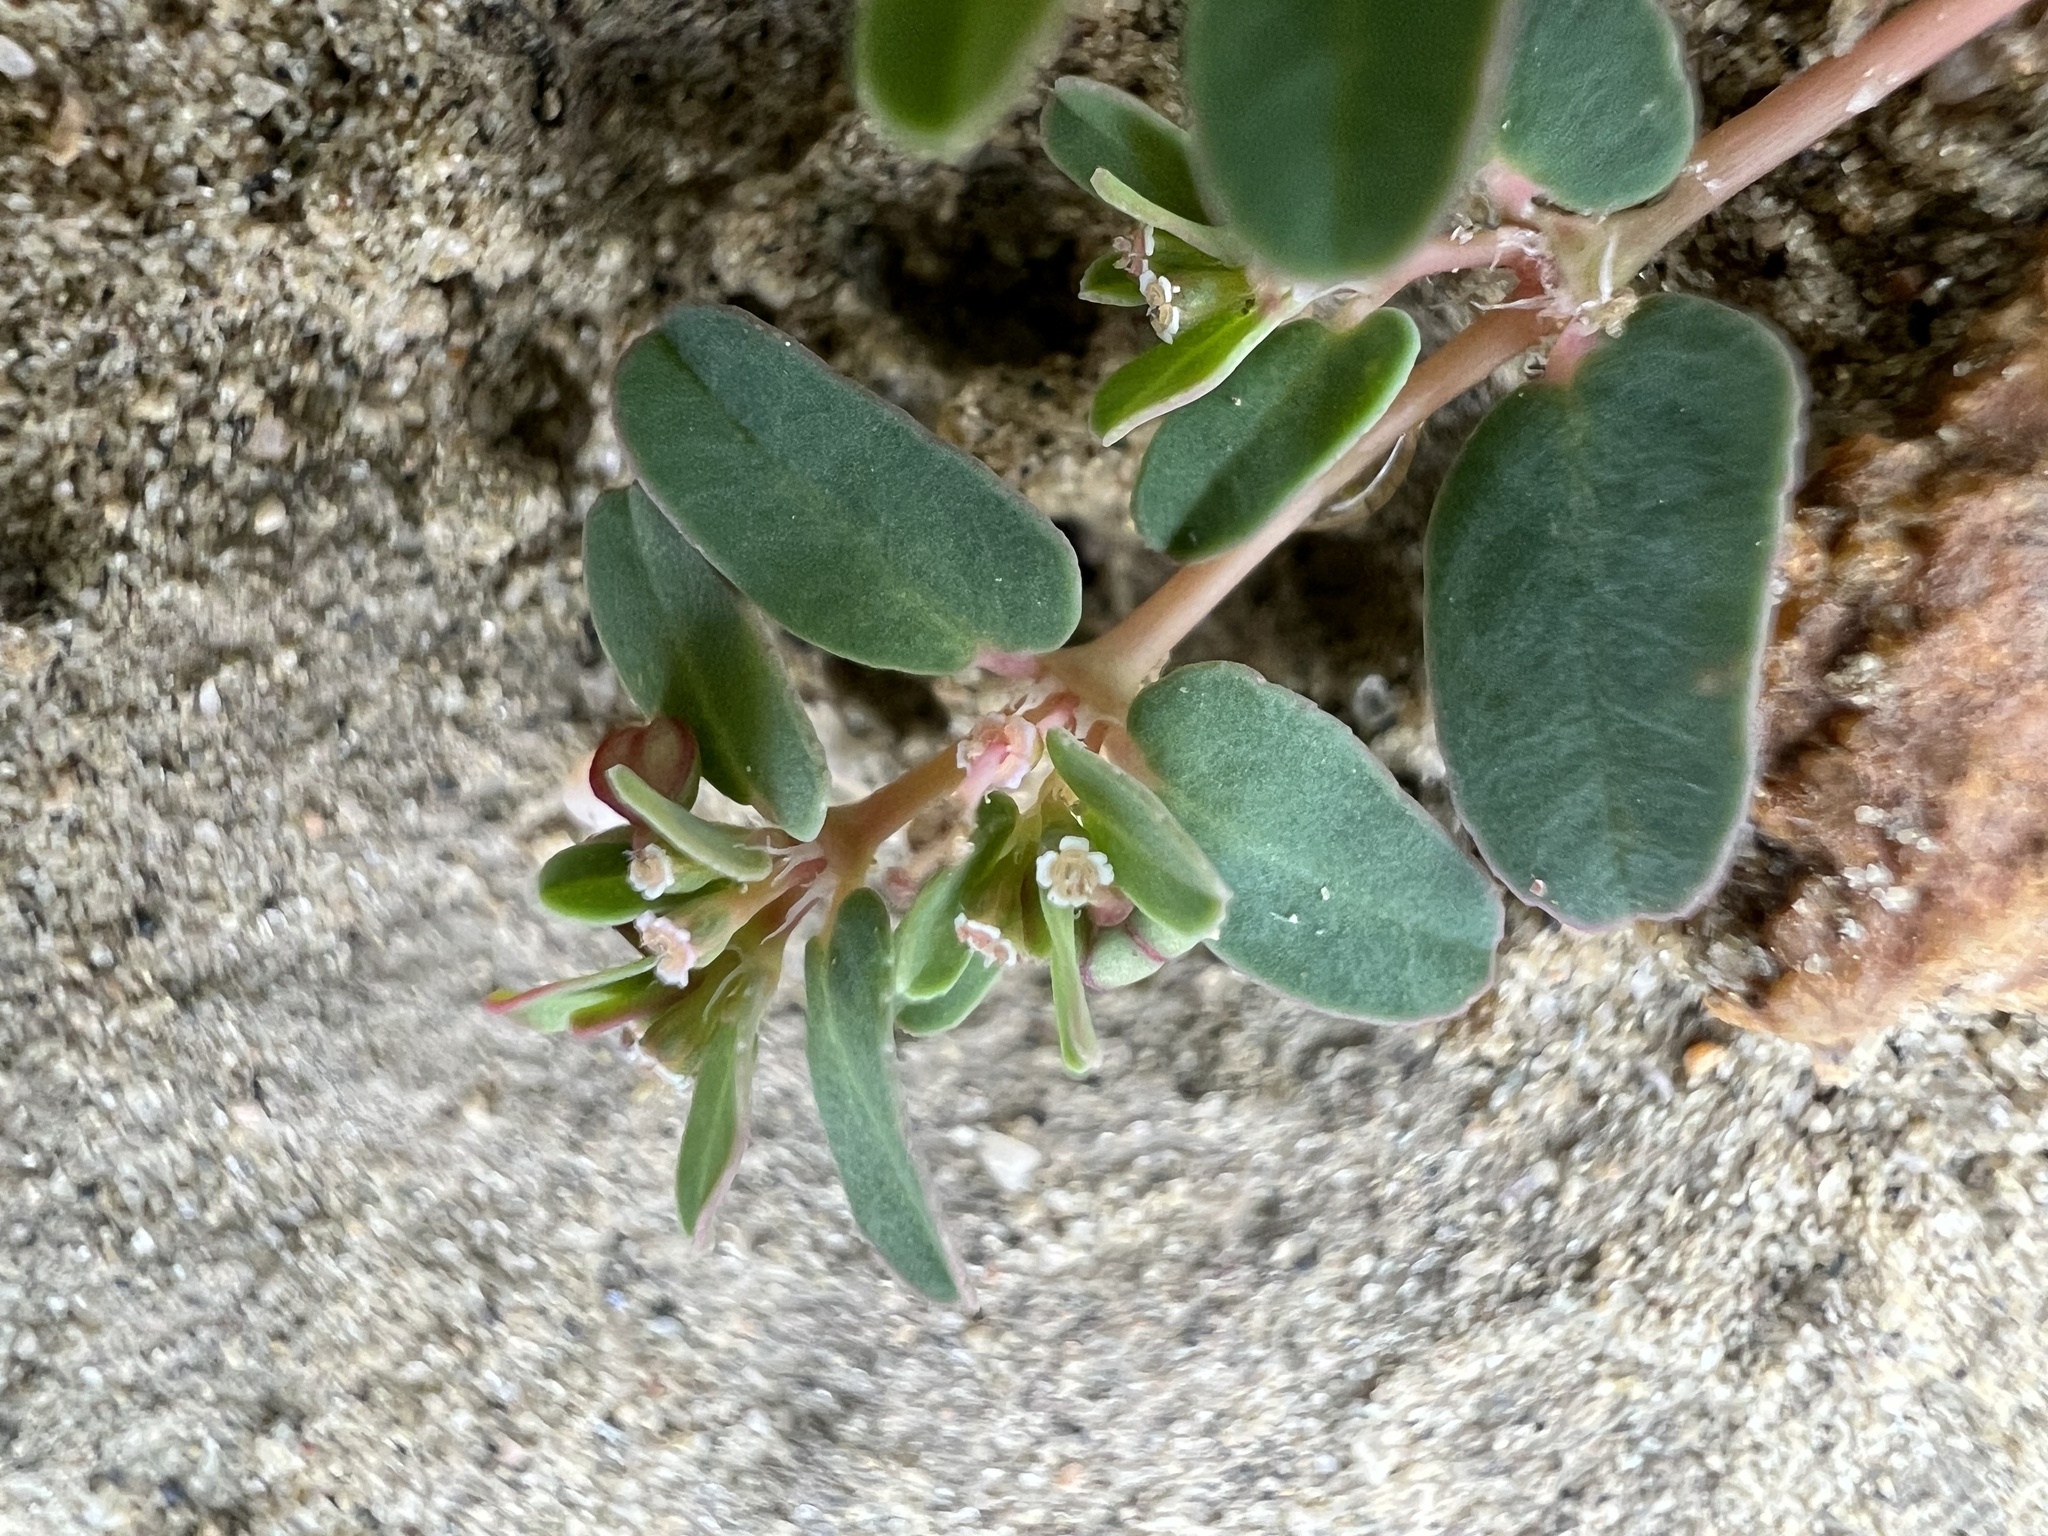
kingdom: Plantae
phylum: Tracheophyta
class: Magnoliopsida
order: Malpighiales
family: Euphorbiaceae
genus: Euphorbia
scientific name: Euphorbia glyptosperma
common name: Corrugate-seeded spurge
